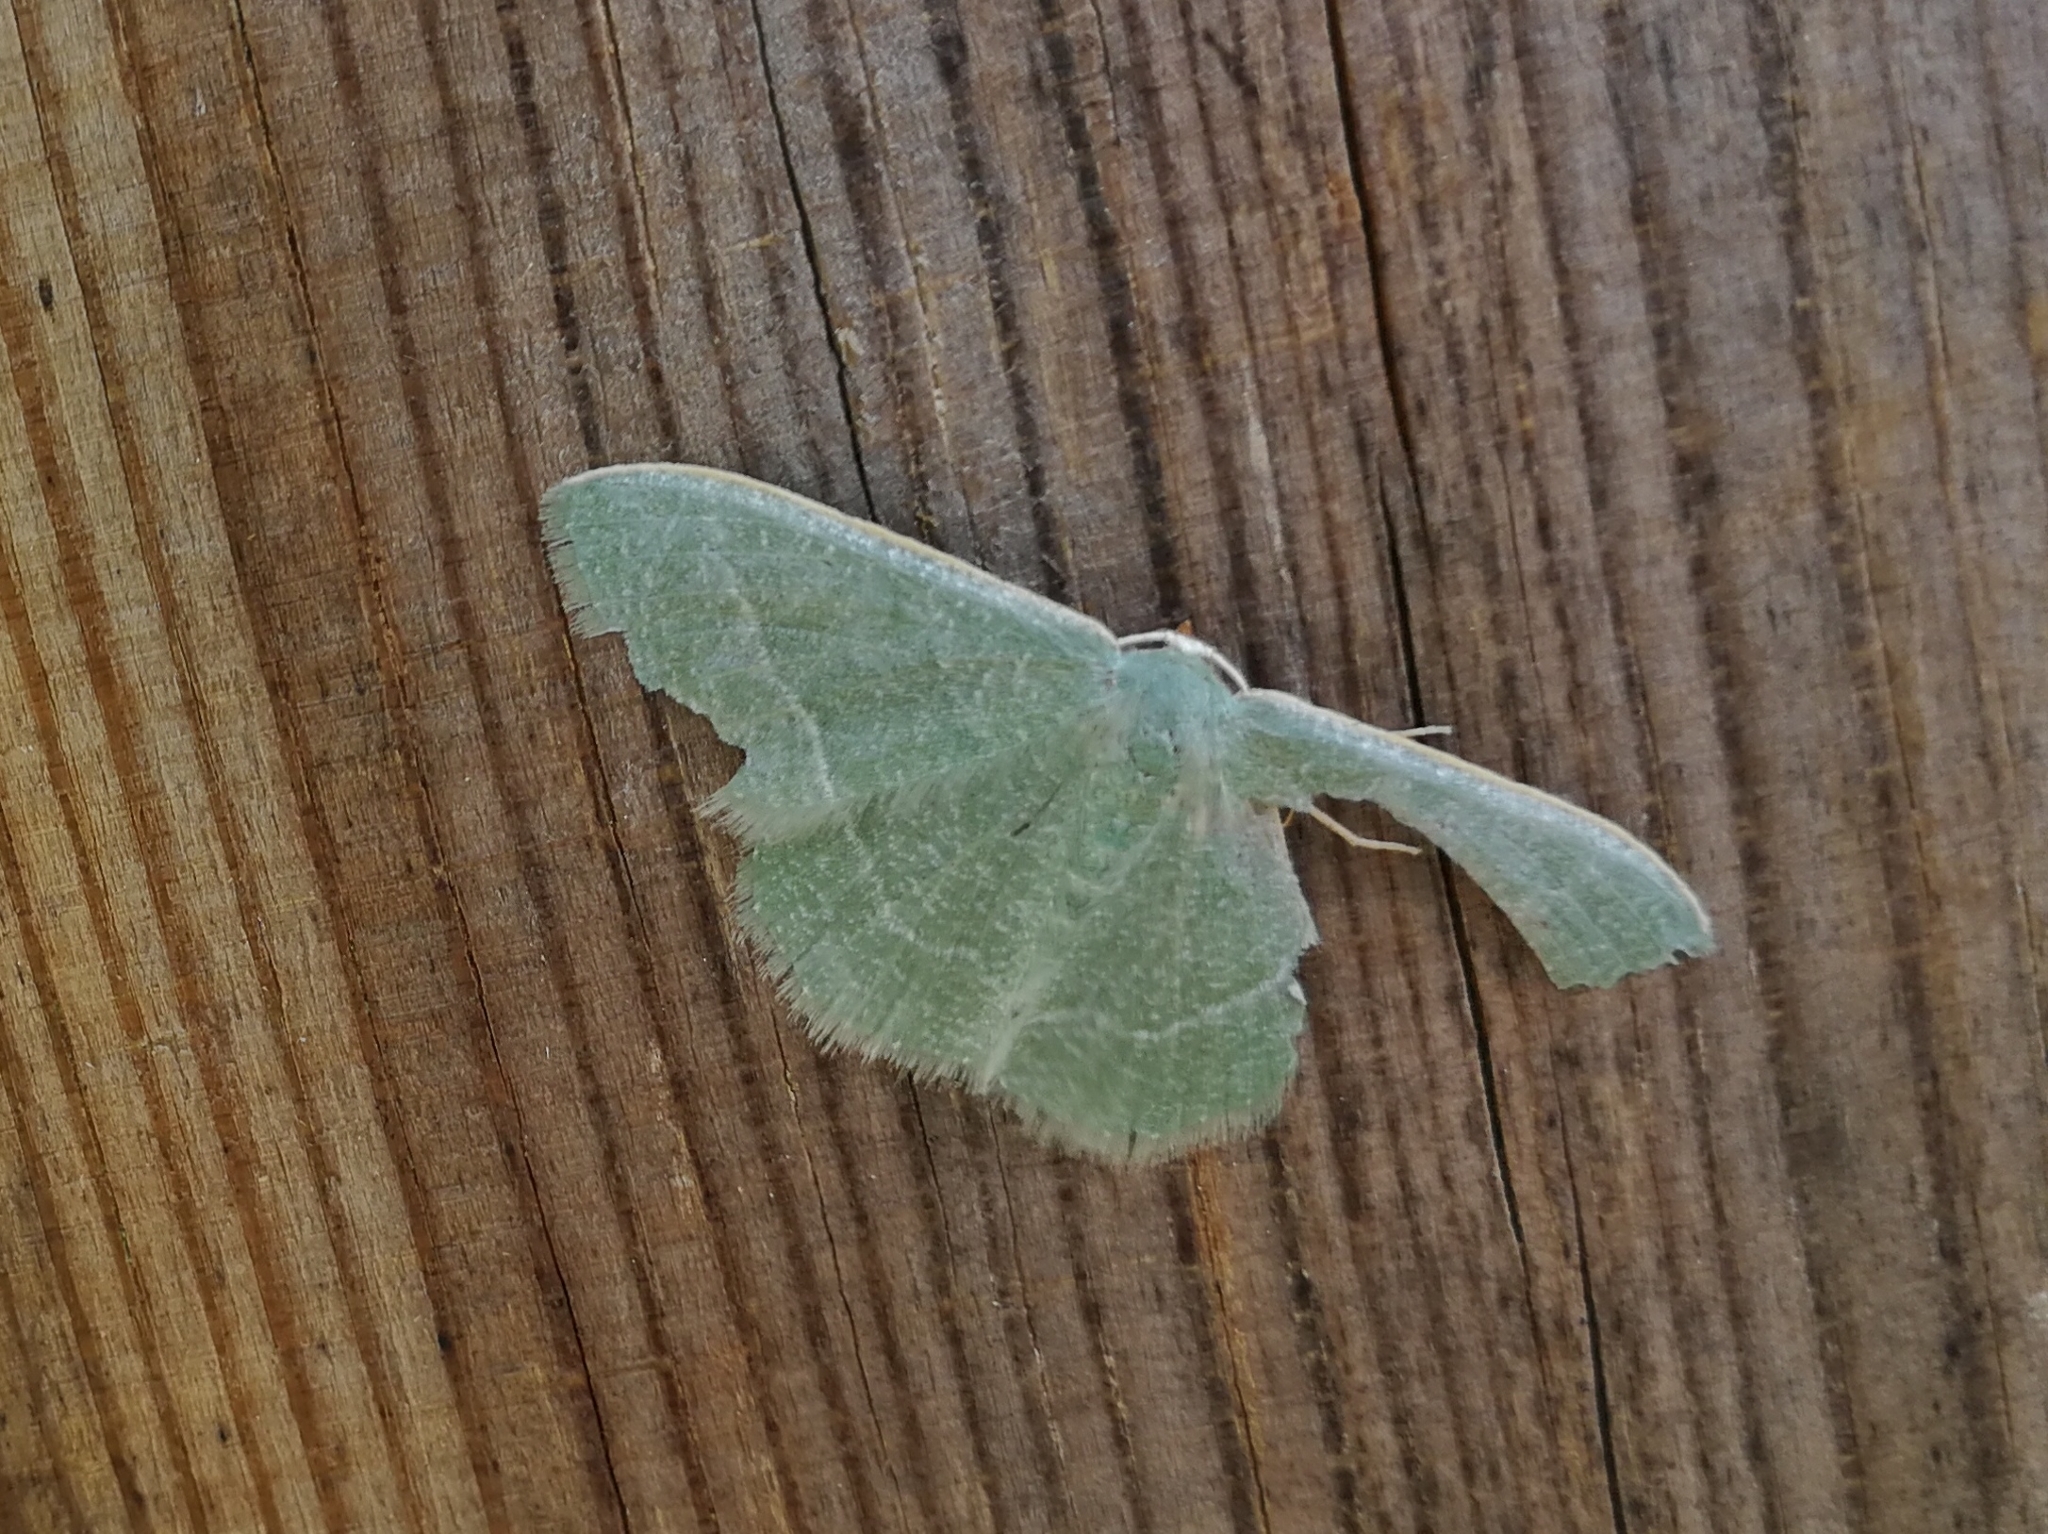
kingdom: Animalia
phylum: Arthropoda
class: Insecta
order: Lepidoptera
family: Geometridae
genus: Chlorissa
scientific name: Chlorissa etruscaria
